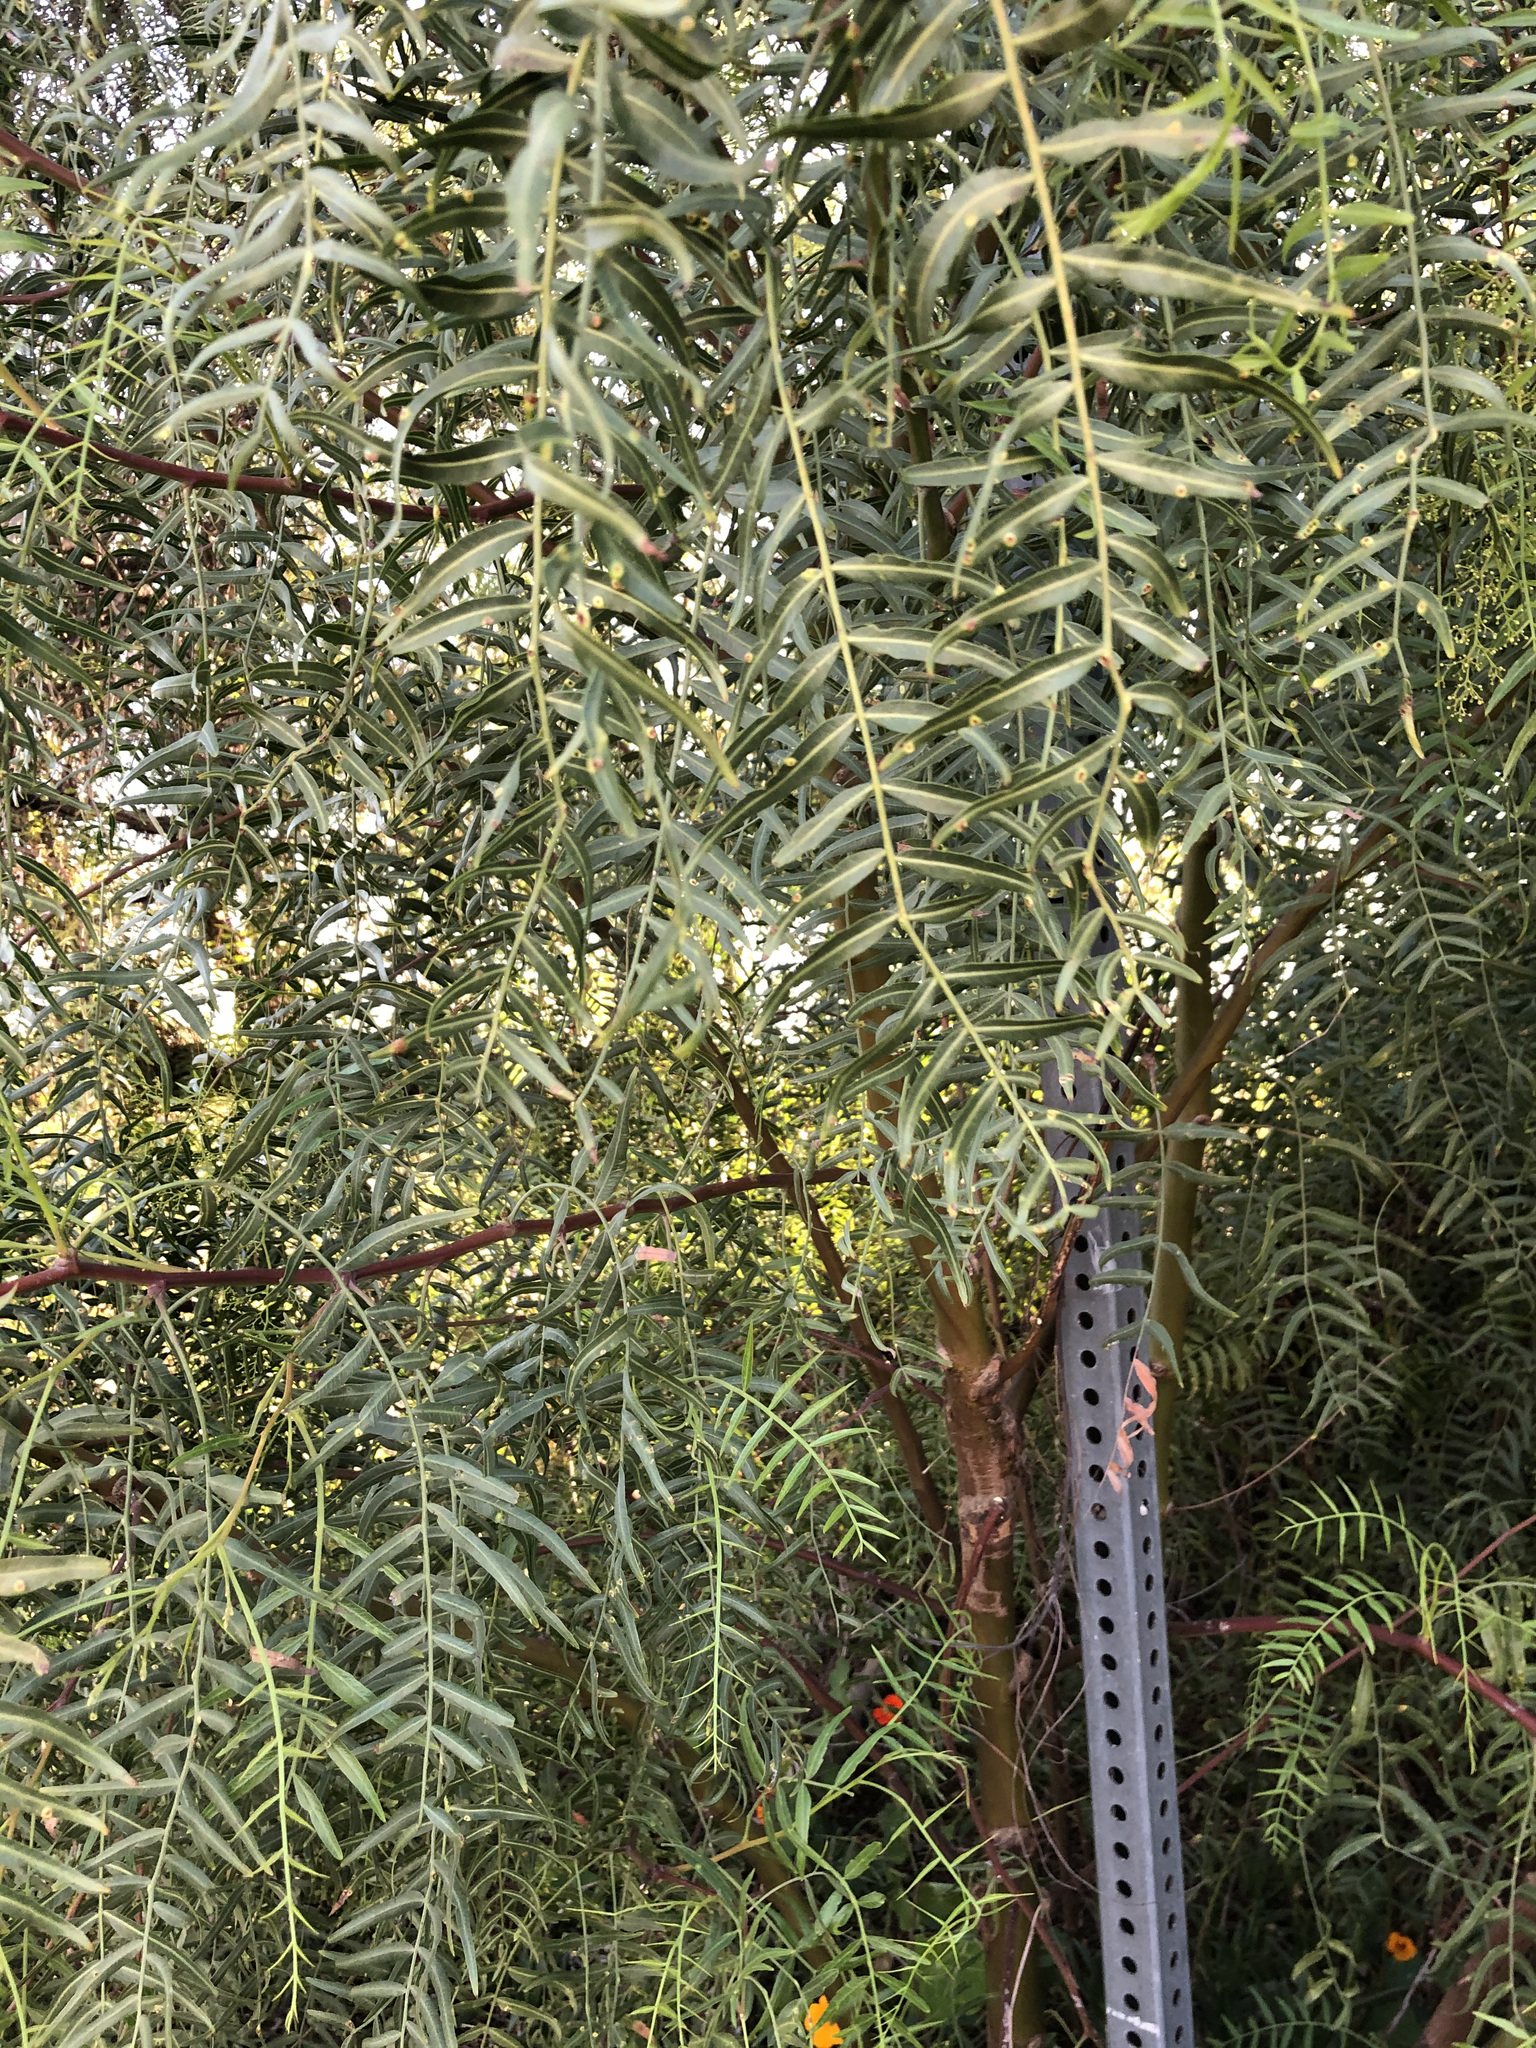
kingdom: Plantae
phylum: Tracheophyta
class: Magnoliopsida
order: Sapindales
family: Anacardiaceae
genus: Schinus
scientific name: Schinus molle
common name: Peruvian peppertree
